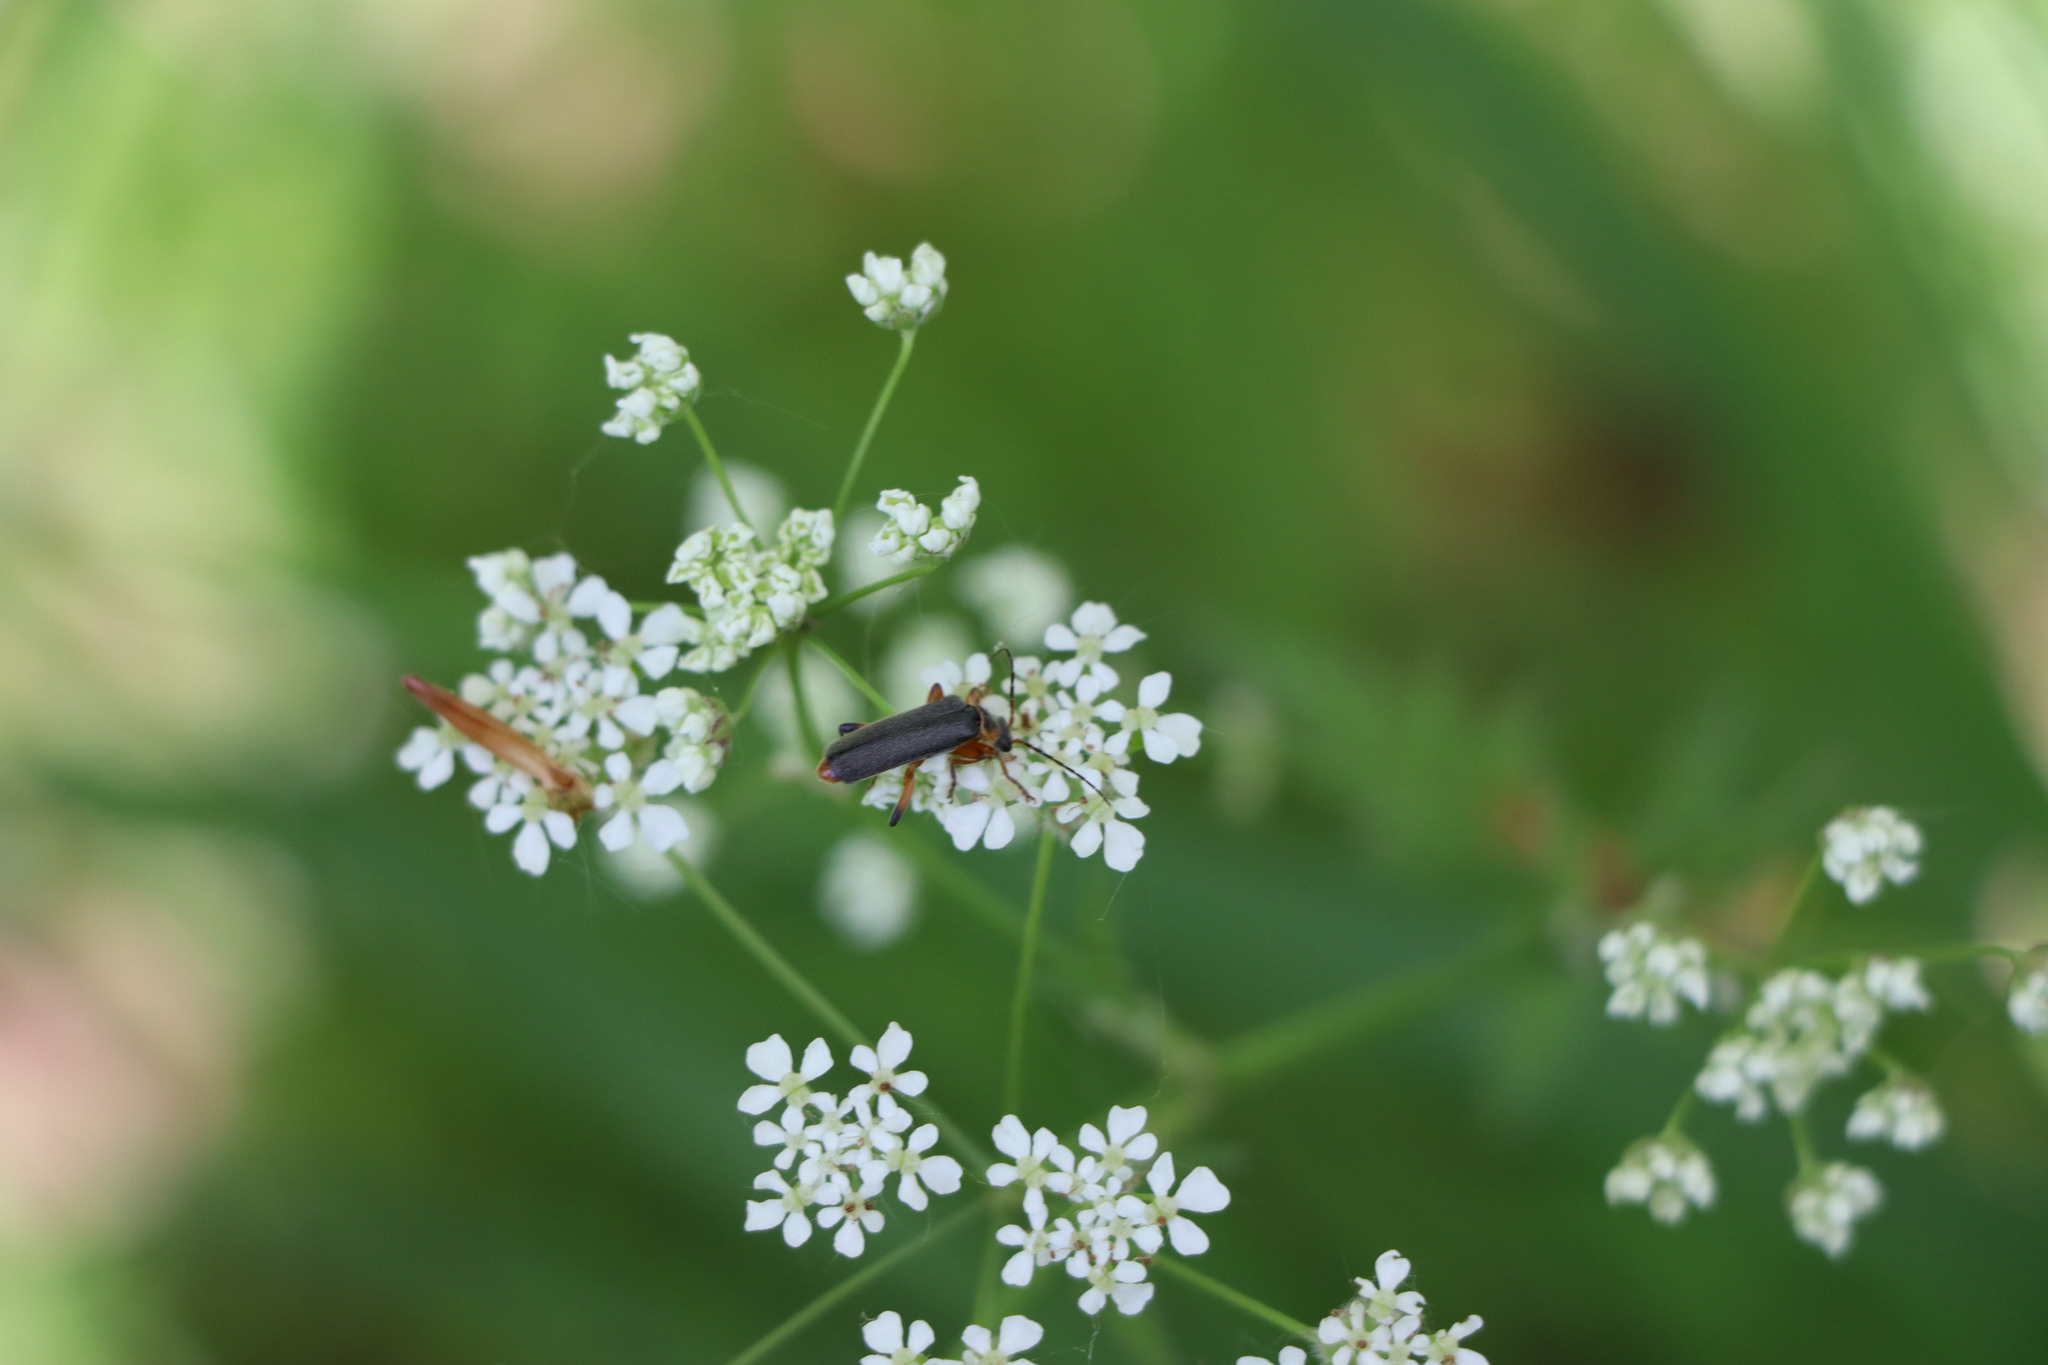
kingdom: Animalia
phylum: Arthropoda
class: Insecta
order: Coleoptera
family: Cantharidae
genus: Cantharis
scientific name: Cantharis nigricans
